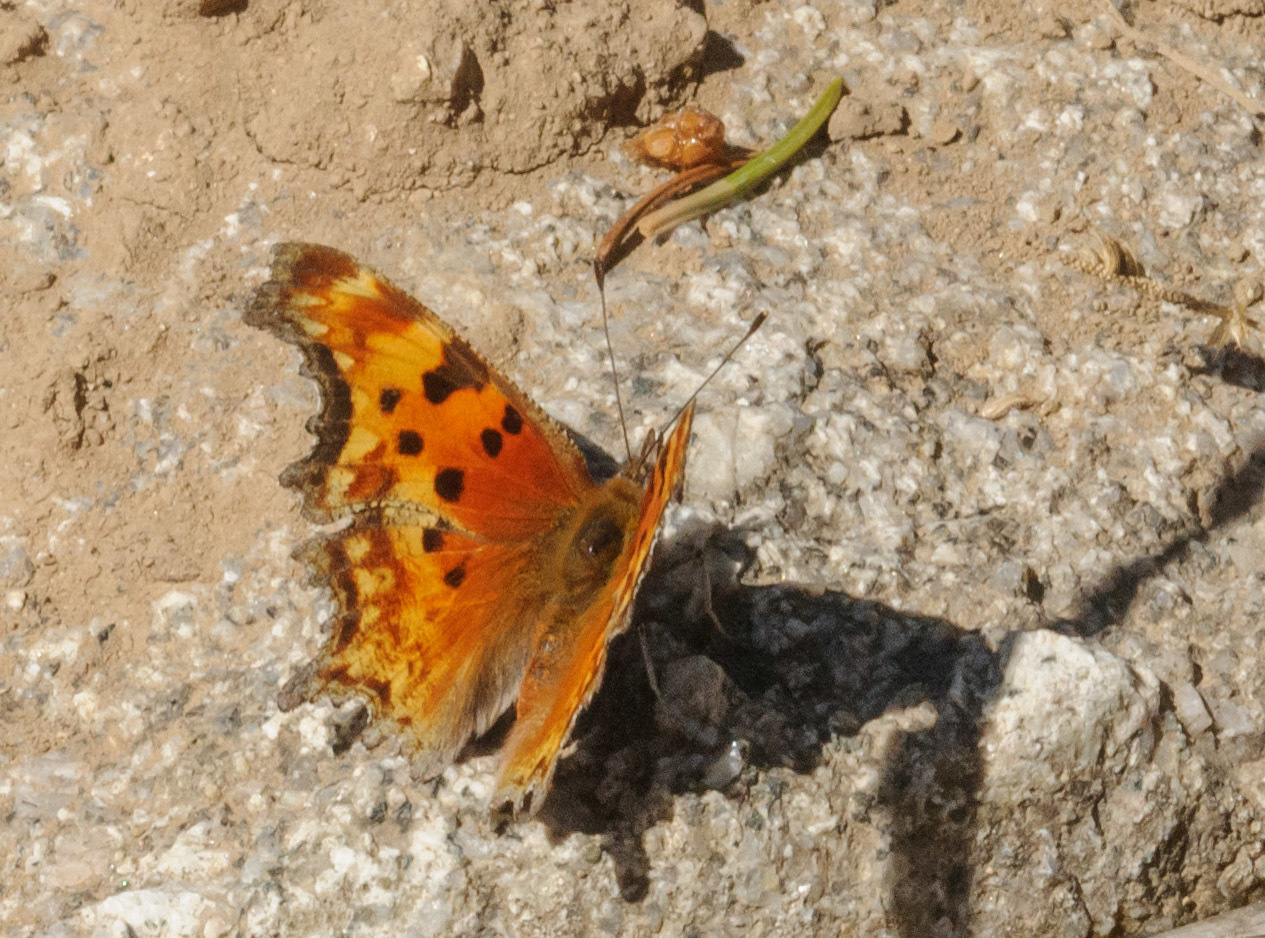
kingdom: Animalia
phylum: Arthropoda
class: Insecta
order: Lepidoptera
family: Nymphalidae
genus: Polygonia
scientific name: Polygonia gracilis
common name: Hoary comma
